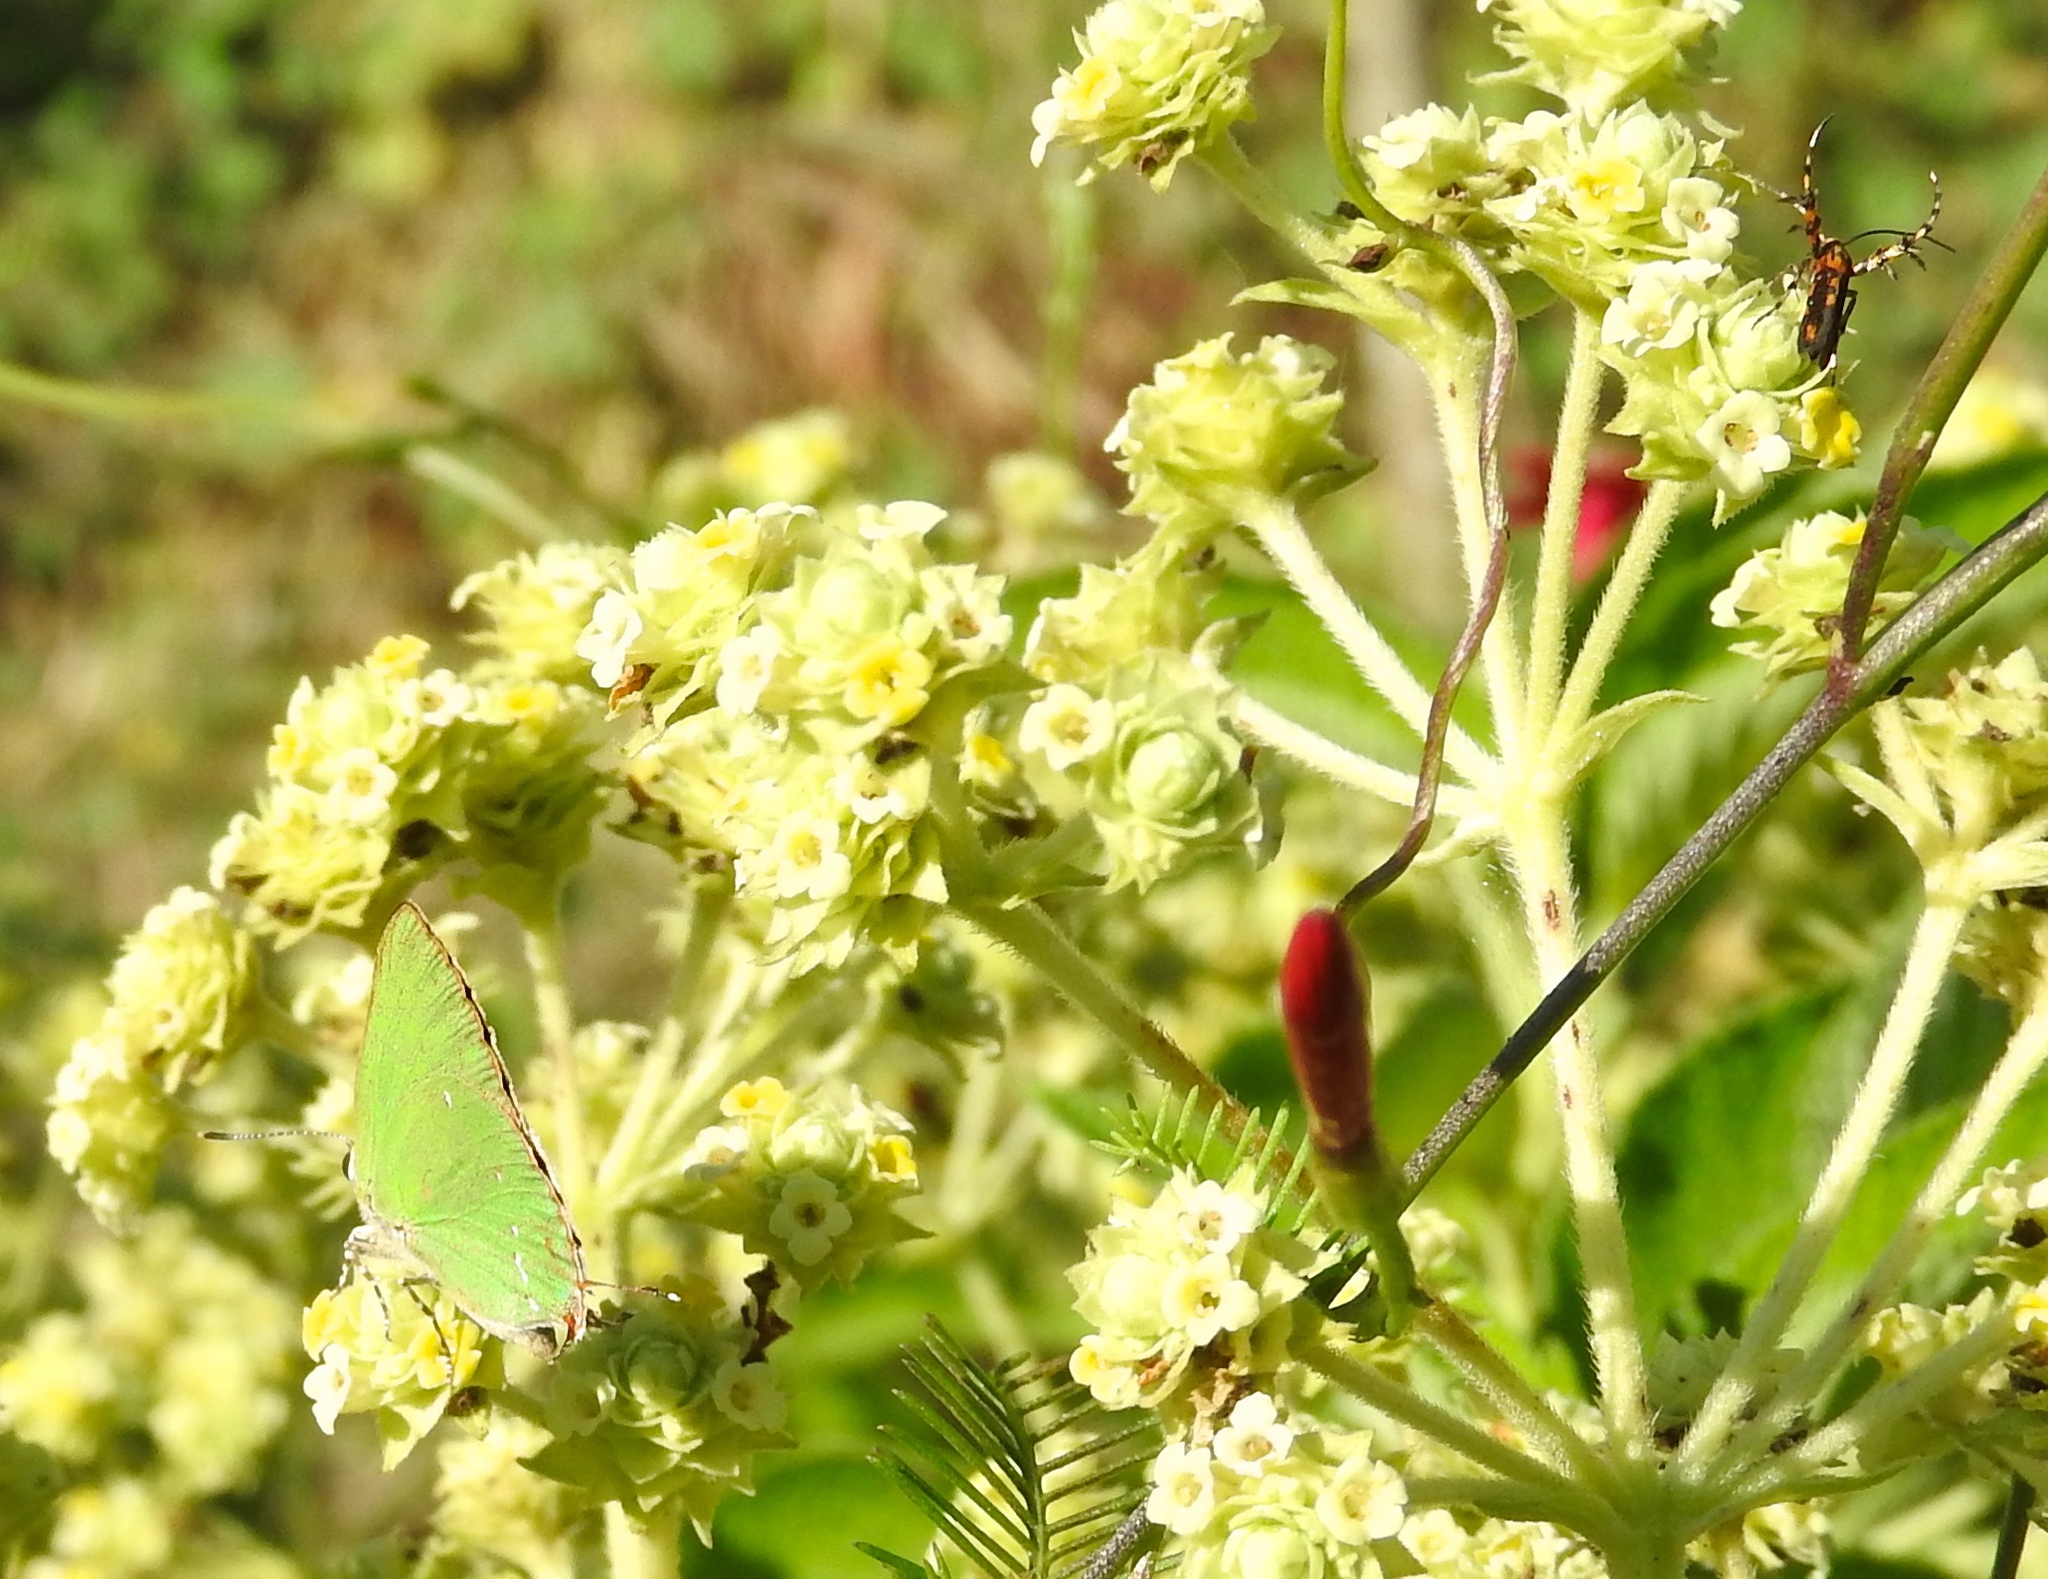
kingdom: Animalia
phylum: Arthropoda
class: Insecta
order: Lepidoptera
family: Lycaenidae
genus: Cyanophrys
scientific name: Cyanophrys
